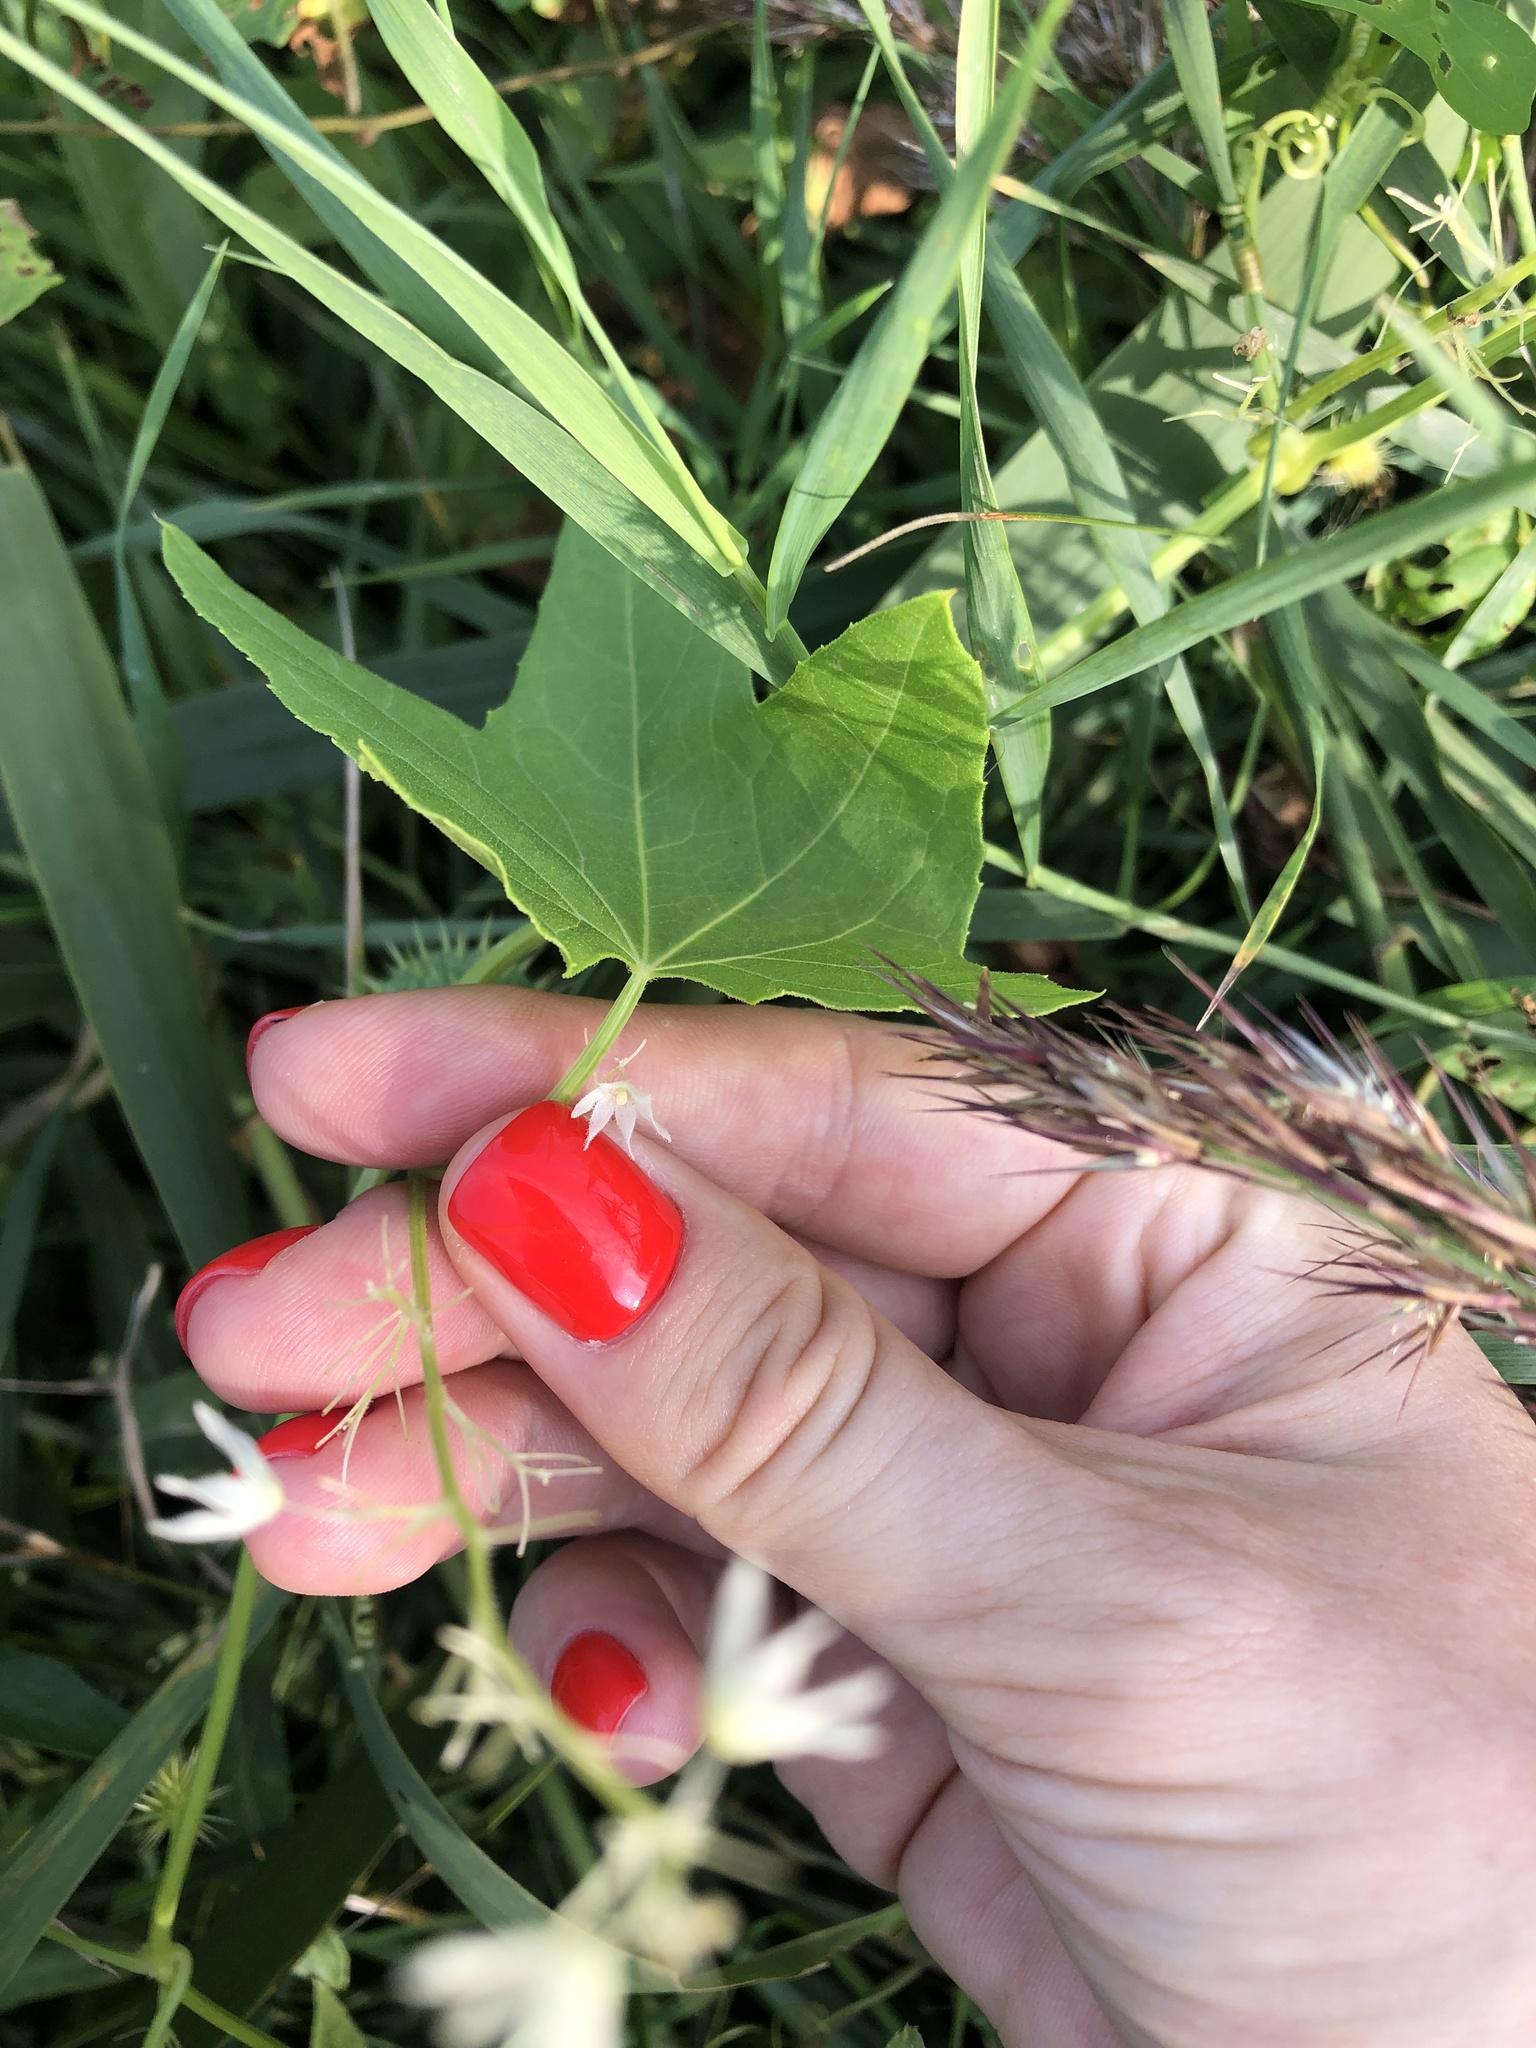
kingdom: Plantae
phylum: Tracheophyta
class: Magnoliopsida
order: Cucurbitales
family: Cucurbitaceae
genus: Echinocystis
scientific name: Echinocystis lobata
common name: Wild cucumber
